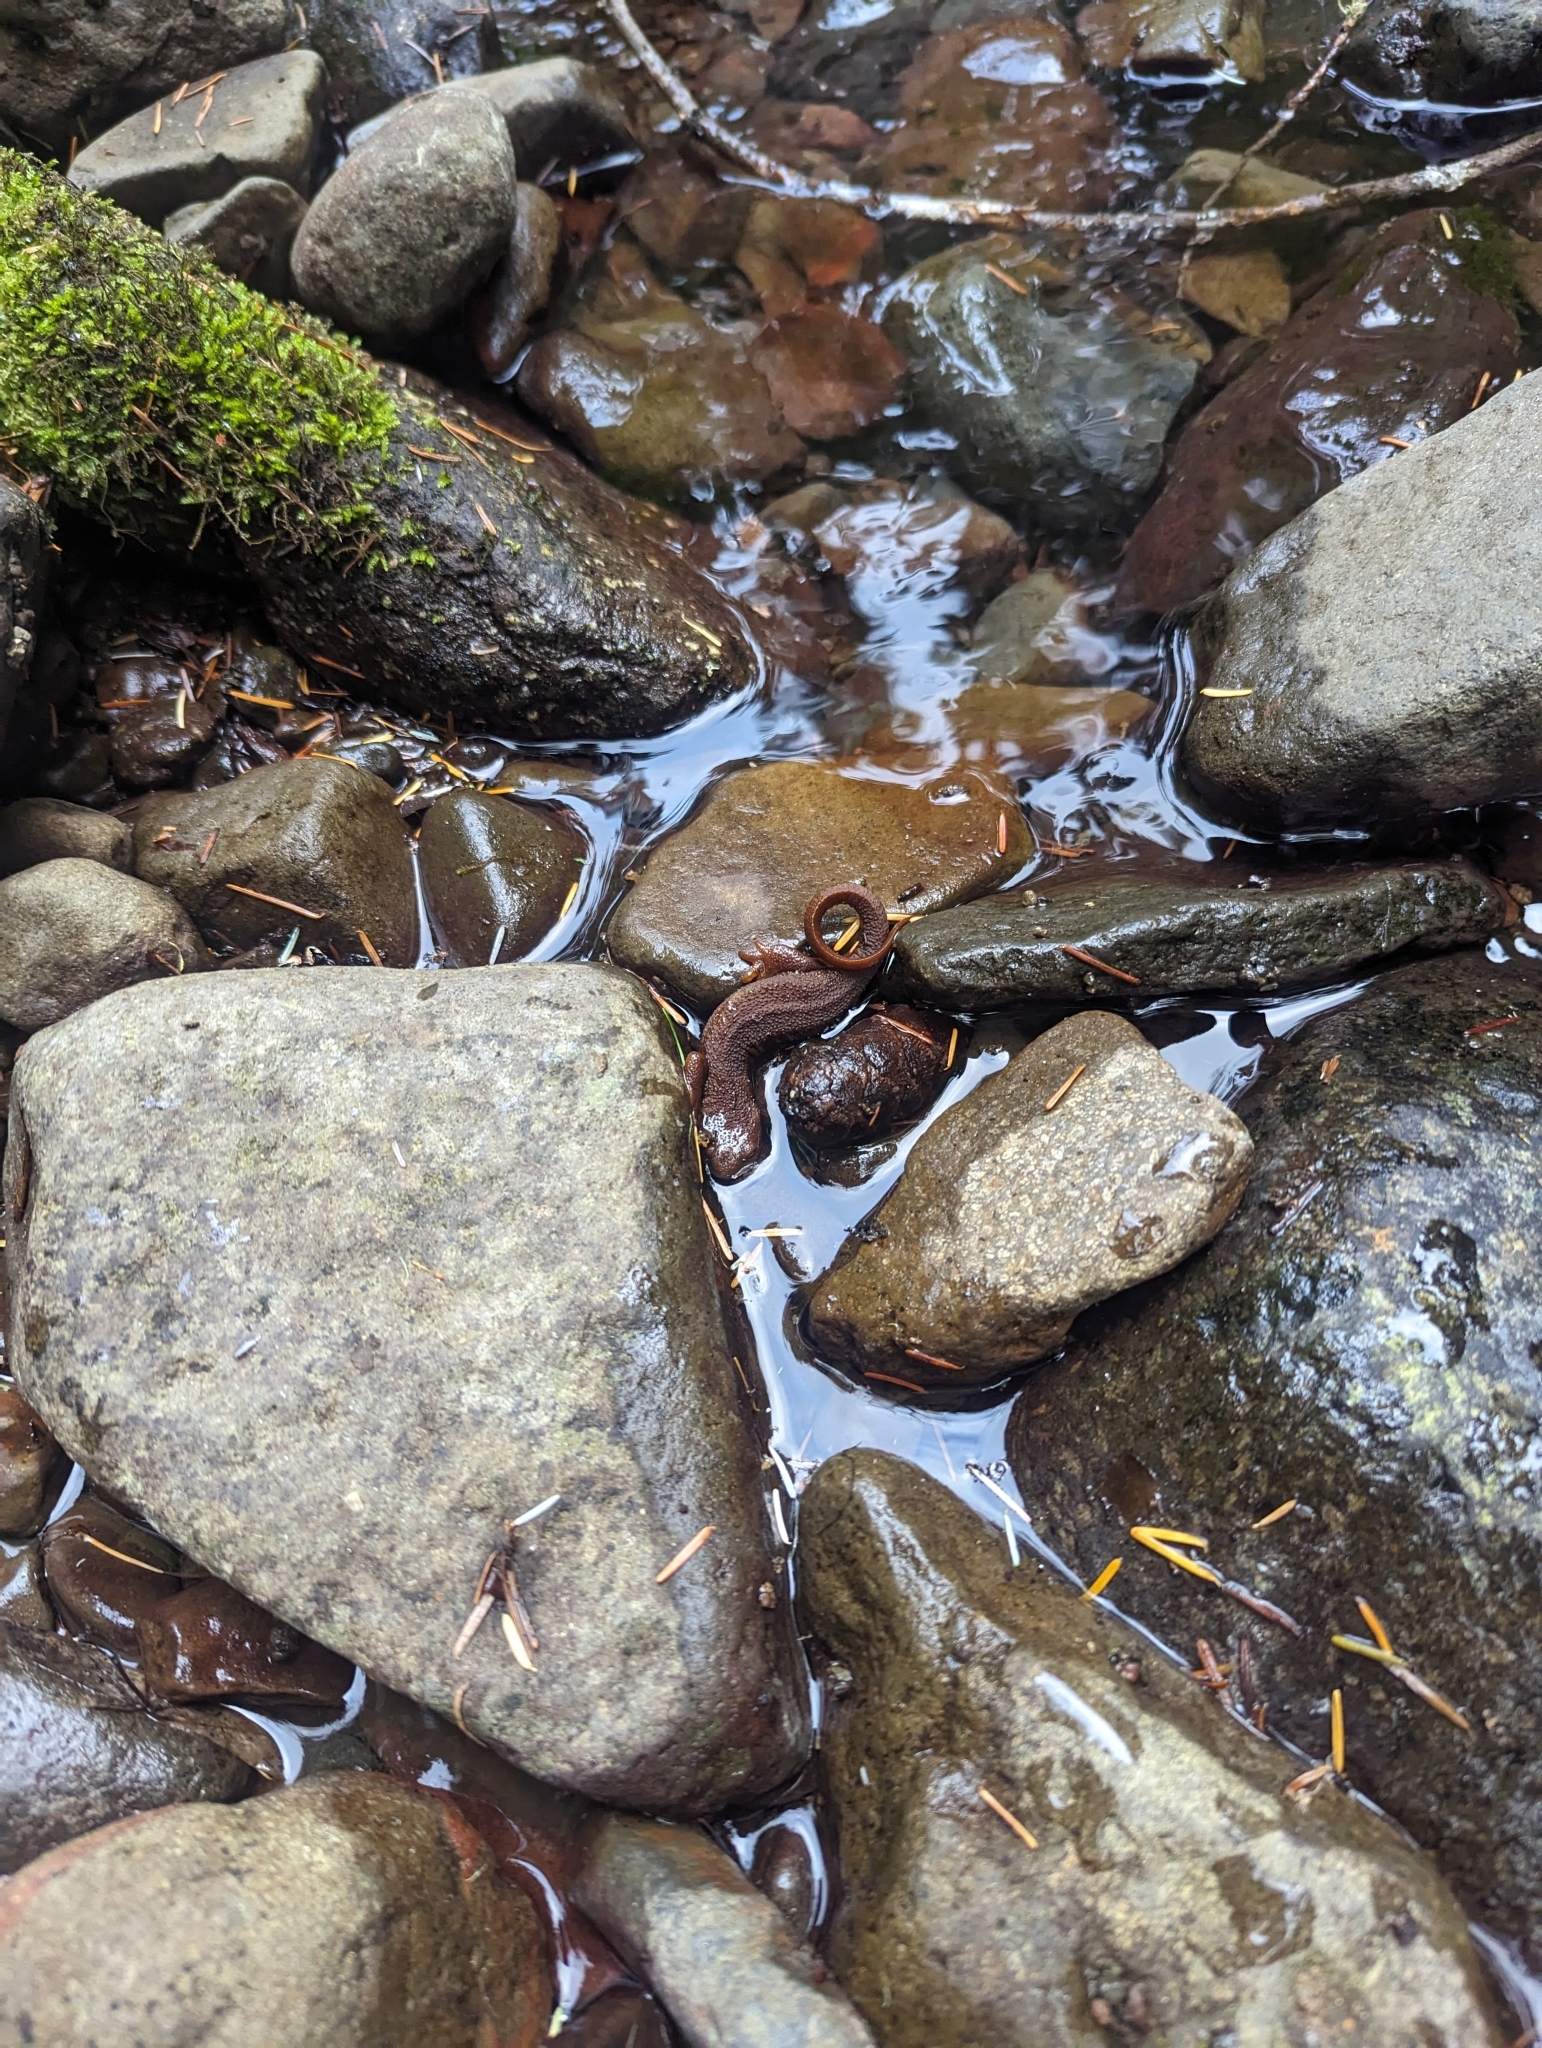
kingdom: Animalia
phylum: Chordata
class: Amphibia
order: Caudata
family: Salamandridae
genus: Taricha
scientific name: Taricha granulosa
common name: Roughskin newt
